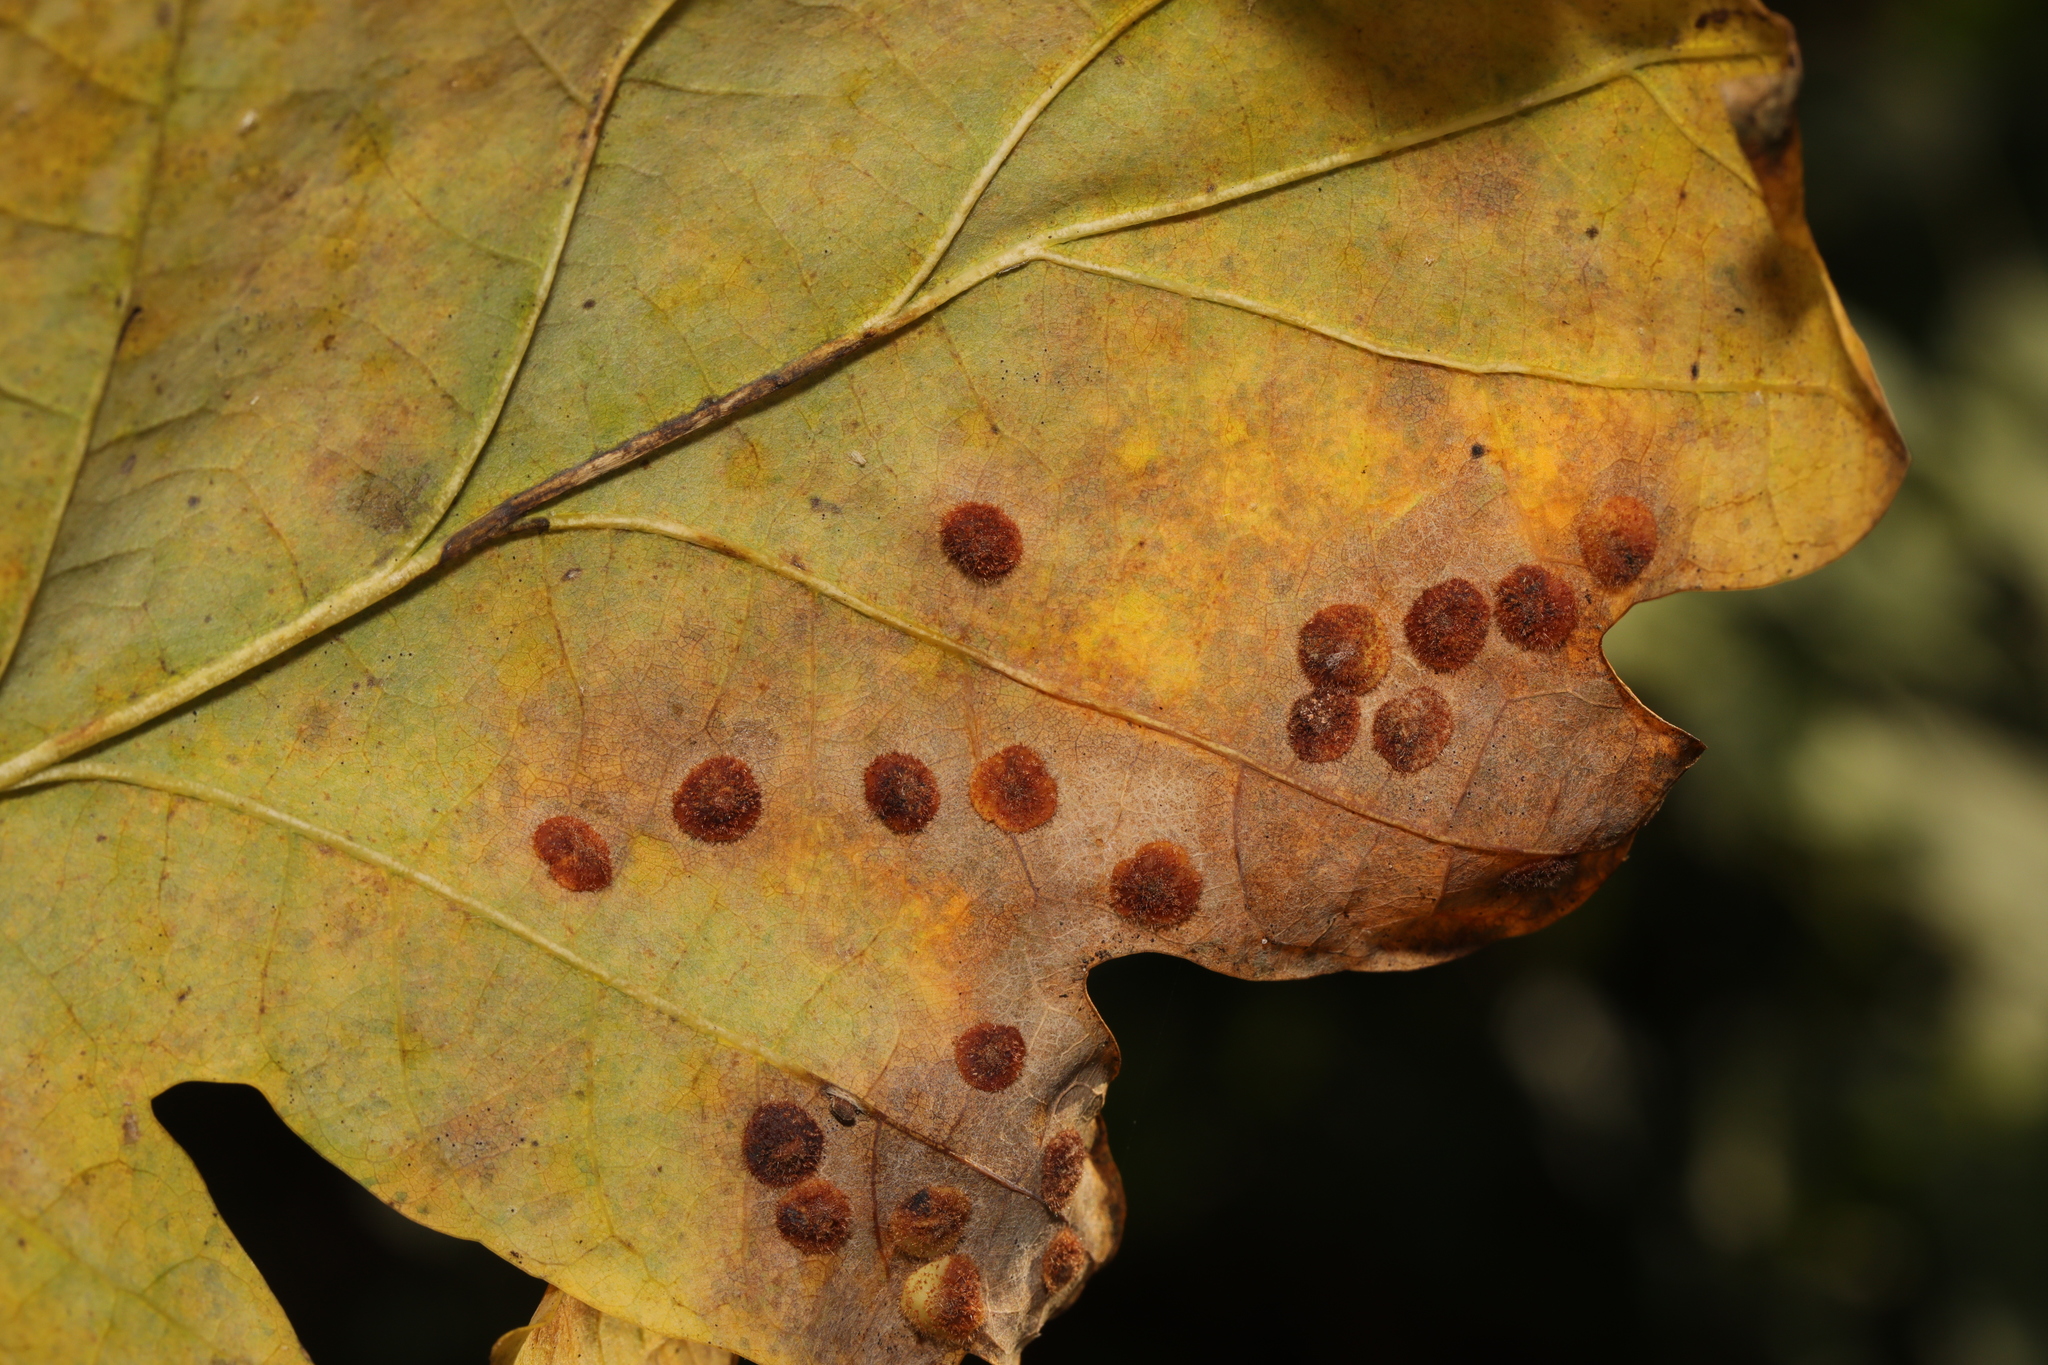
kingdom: Animalia
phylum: Arthropoda
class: Insecta
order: Hymenoptera
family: Cynipidae
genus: Neuroterus
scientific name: Neuroterus quercusbaccarum
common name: Common spangle gall
